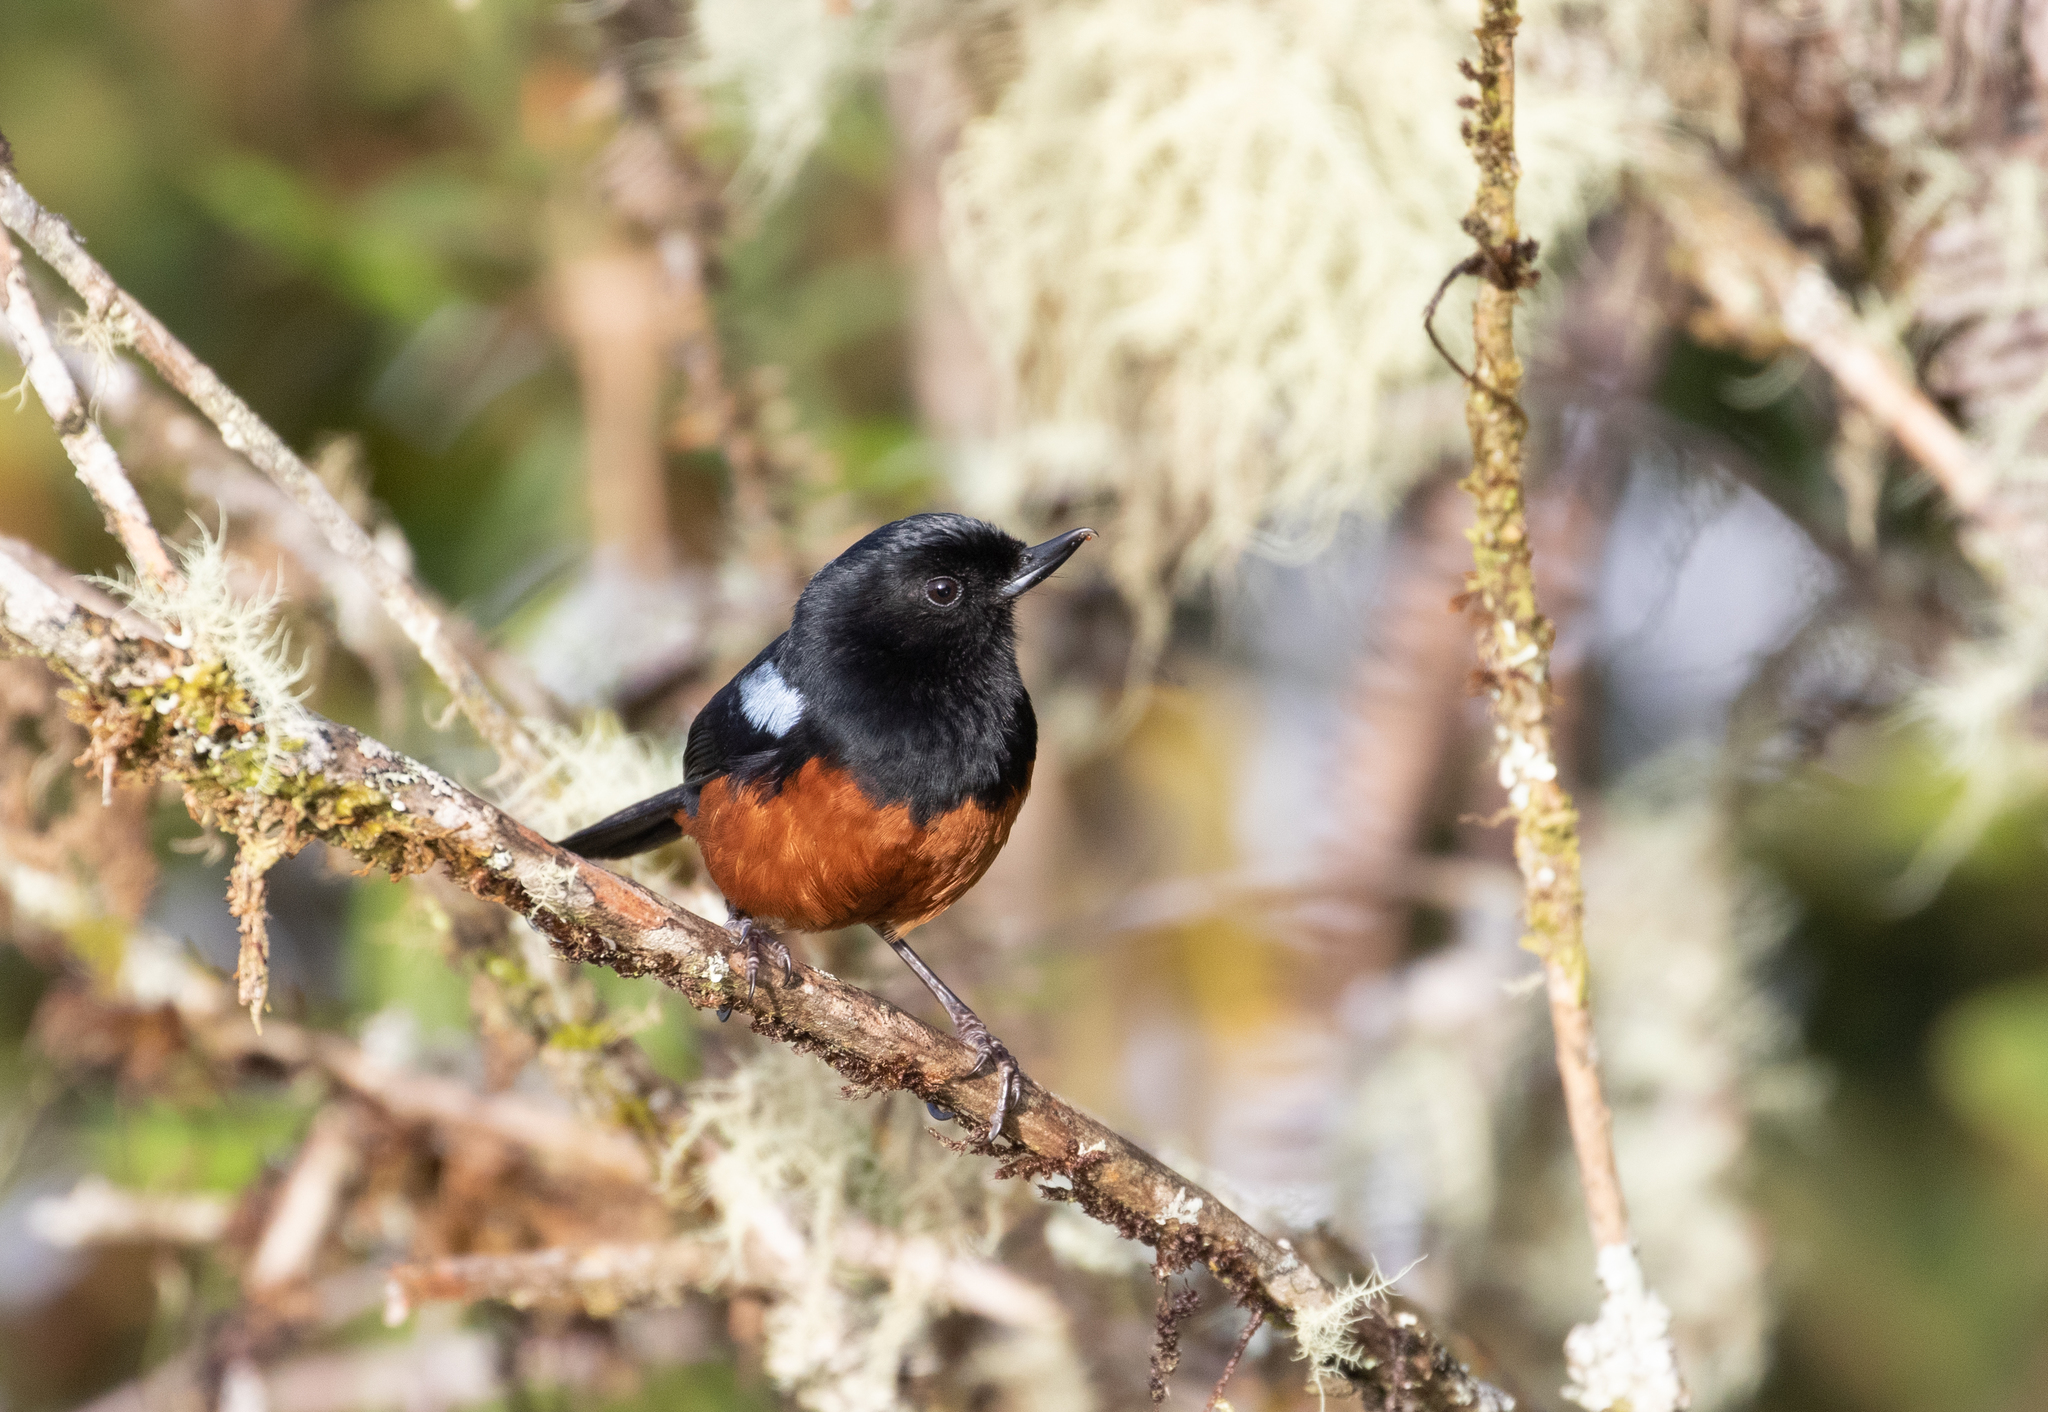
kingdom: Animalia
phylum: Chordata
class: Aves
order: Passeriformes
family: Thraupidae
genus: Diglossa
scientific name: Diglossa gloriosissima
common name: Chestnut-bellied flowerpiercer
